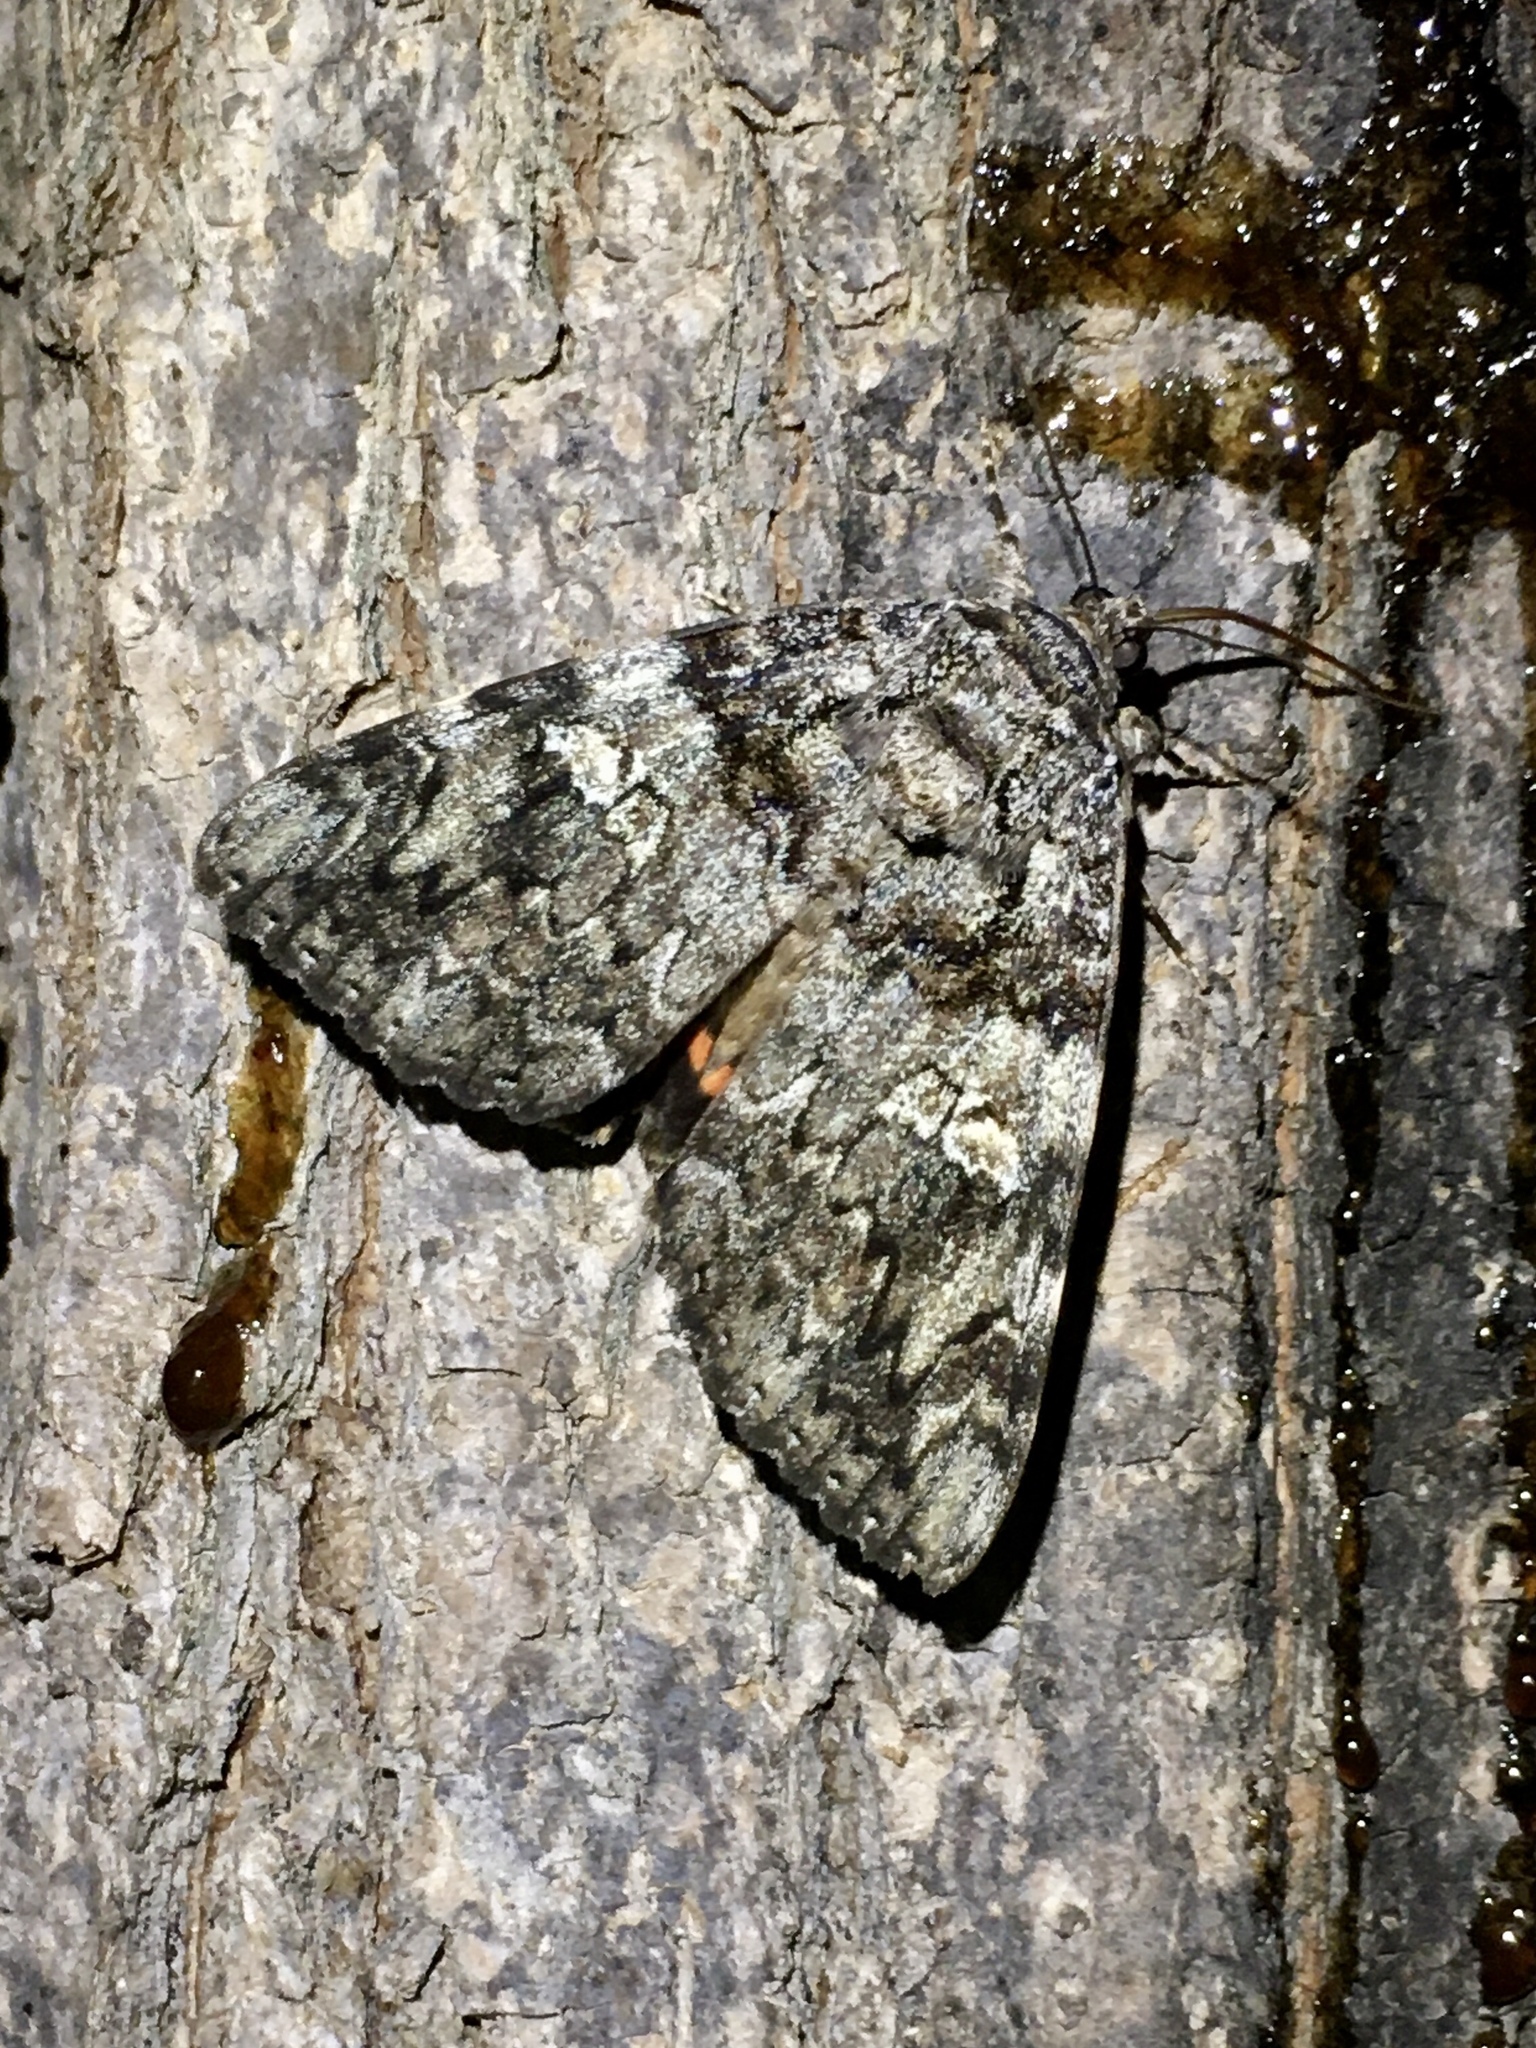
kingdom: Animalia
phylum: Arthropoda
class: Insecta
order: Lepidoptera
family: Erebidae
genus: Catocala
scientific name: Catocala ilia
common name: Ilia underwing
